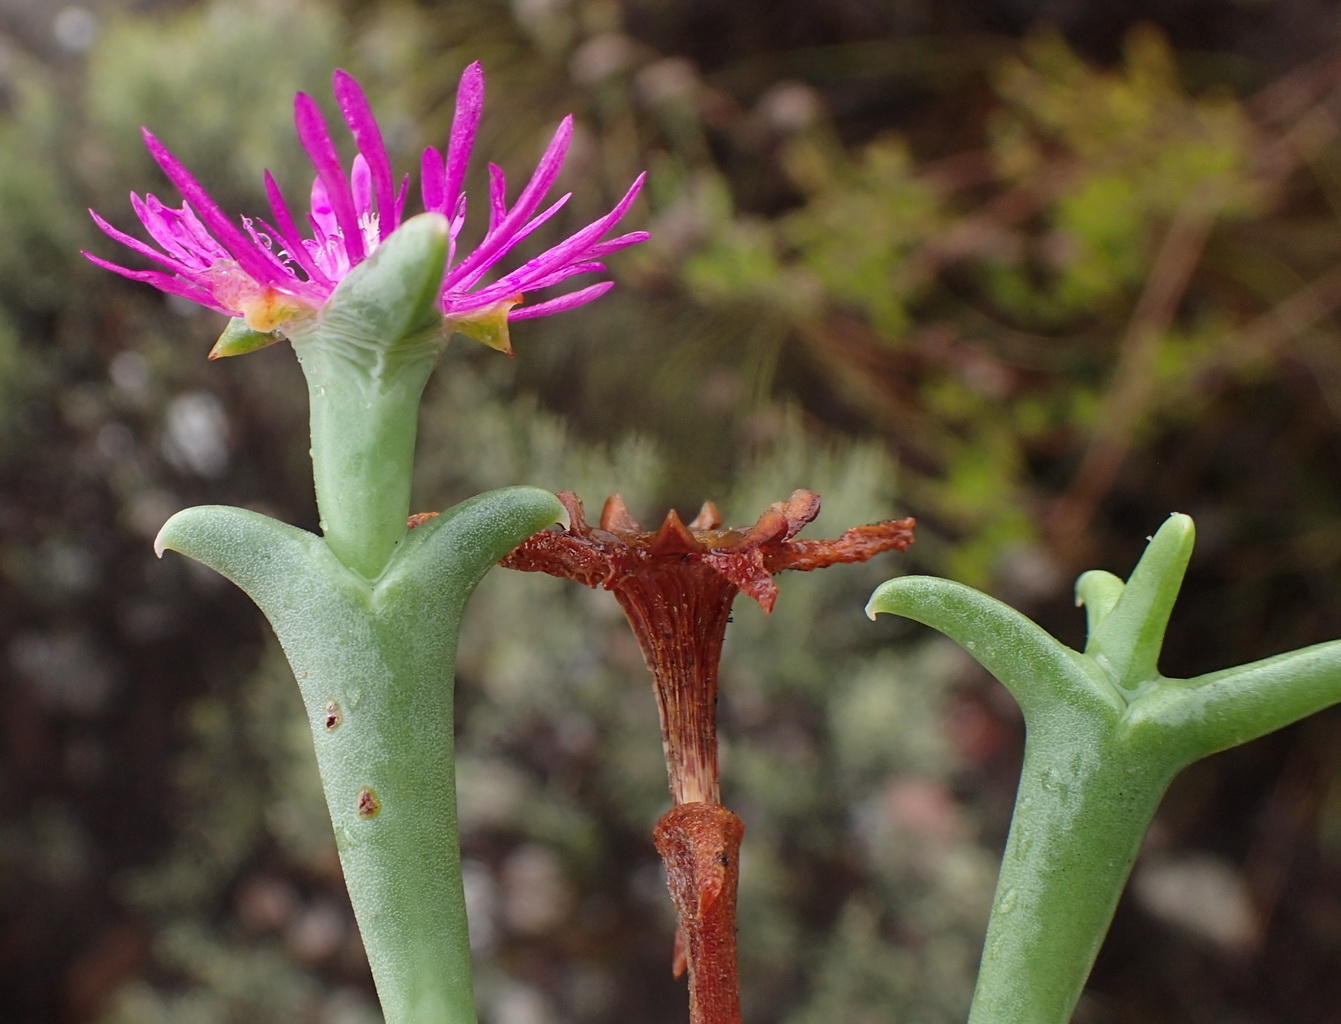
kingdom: Plantae
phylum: Tracheophyta
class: Magnoliopsida
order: Caryophyllales
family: Aizoaceae
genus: Smicrostigma
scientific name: Smicrostigma viride
